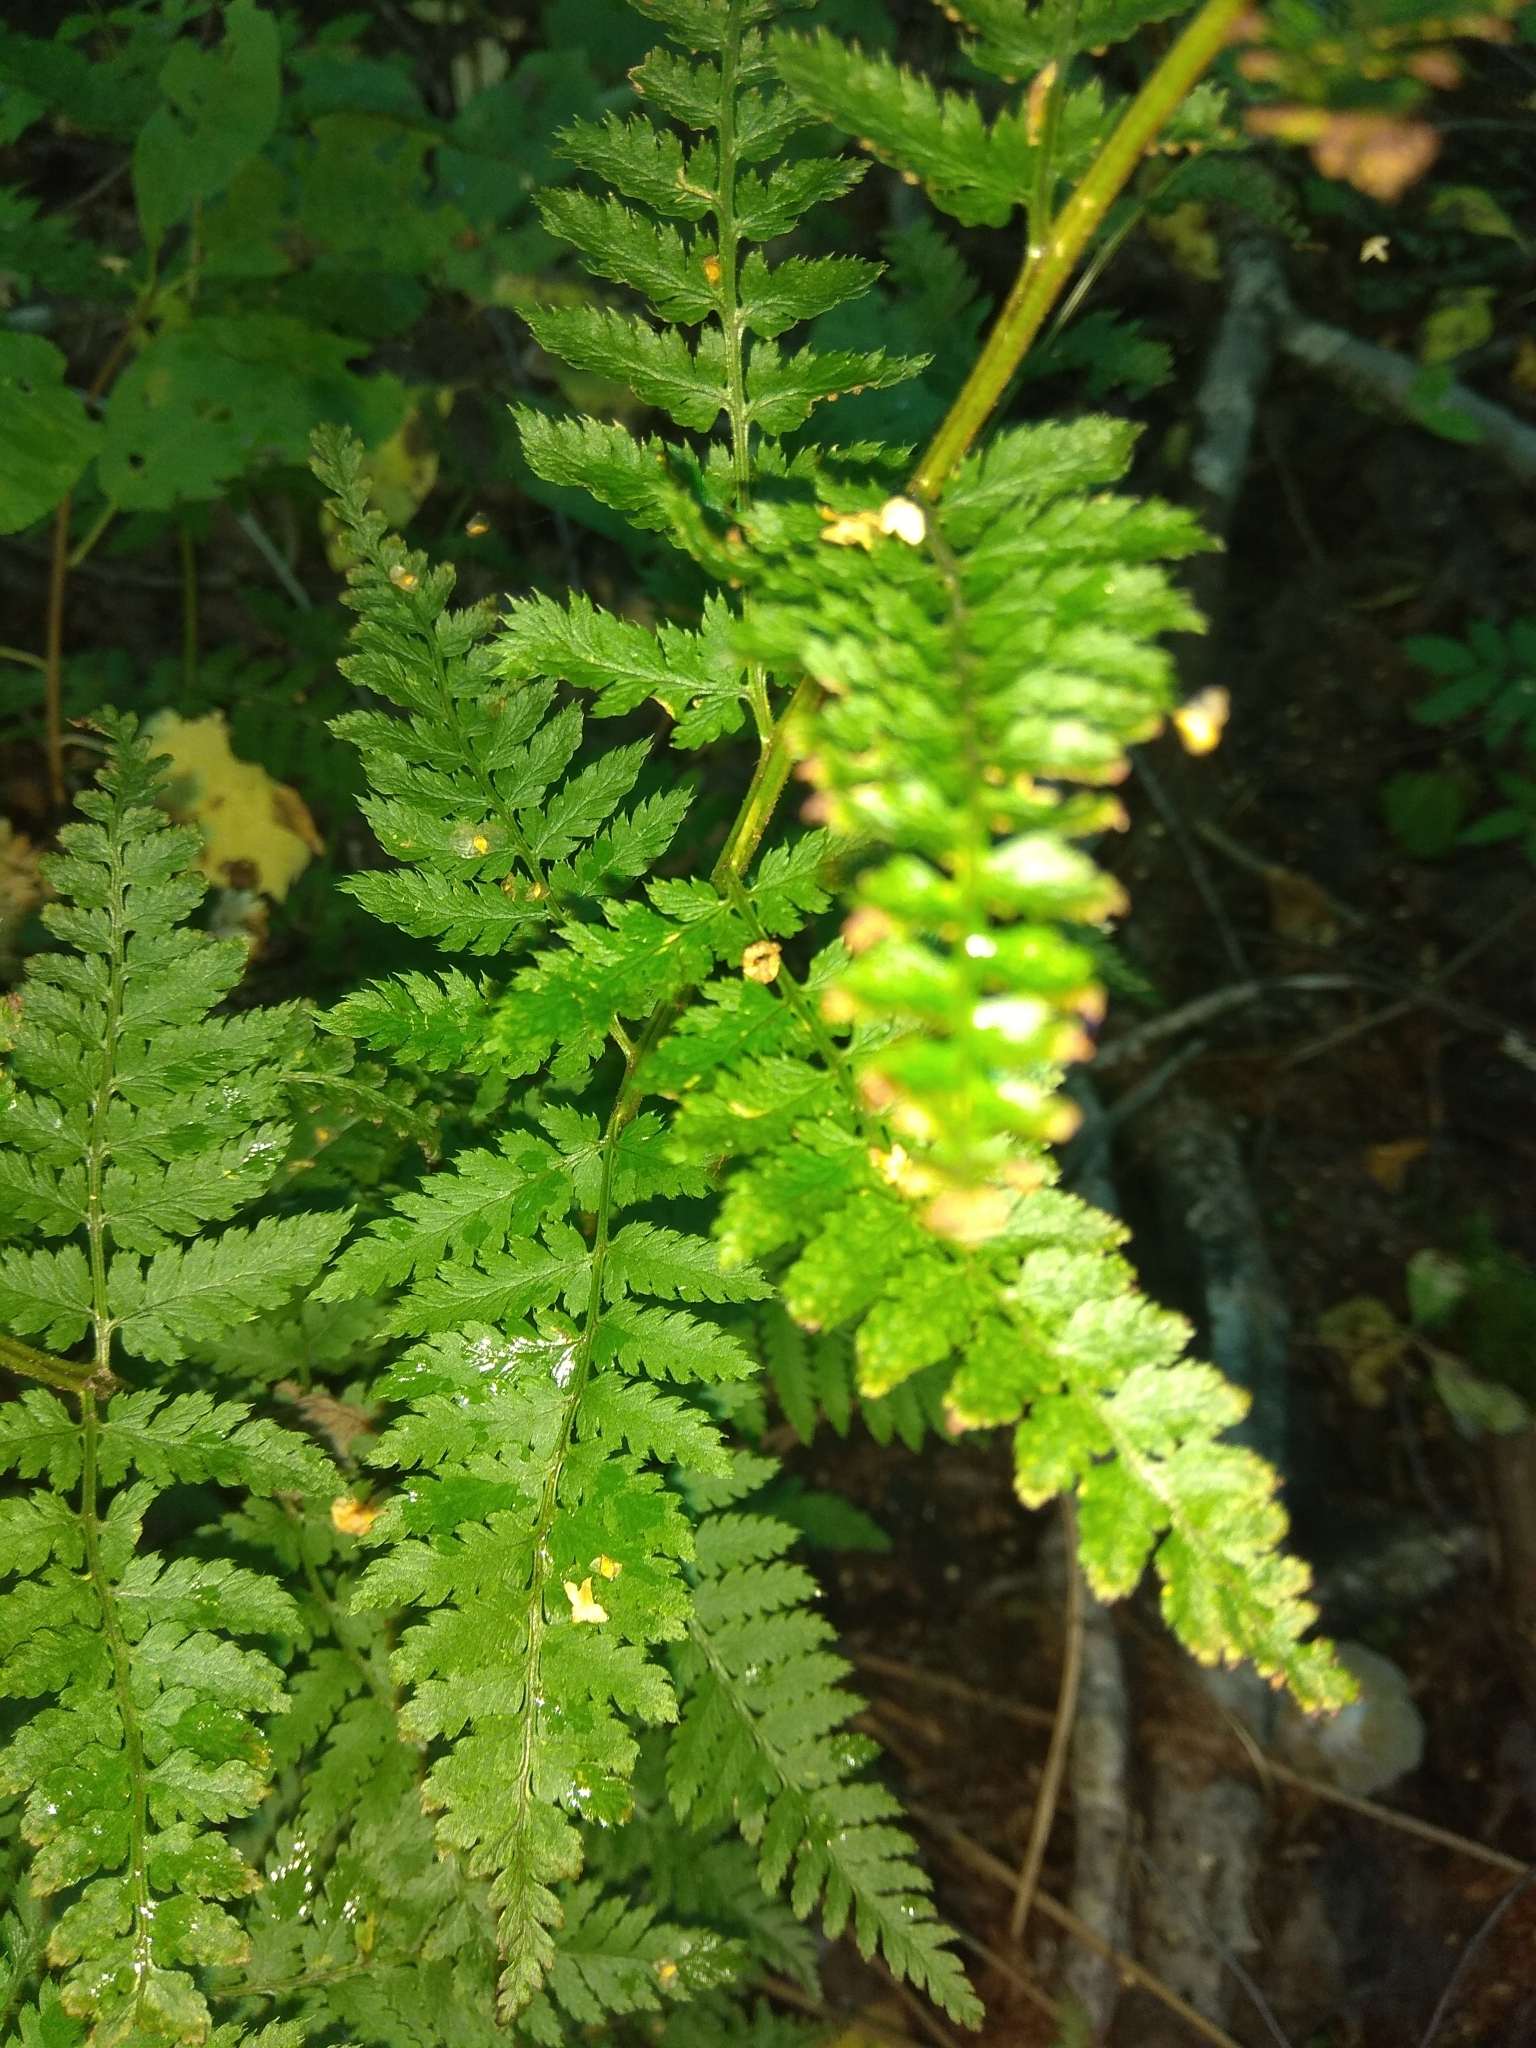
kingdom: Plantae
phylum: Tracheophyta
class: Polypodiopsida
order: Polypodiales
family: Athyriaceae
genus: Athyrium
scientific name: Athyrium filix-femina
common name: Lady fern
